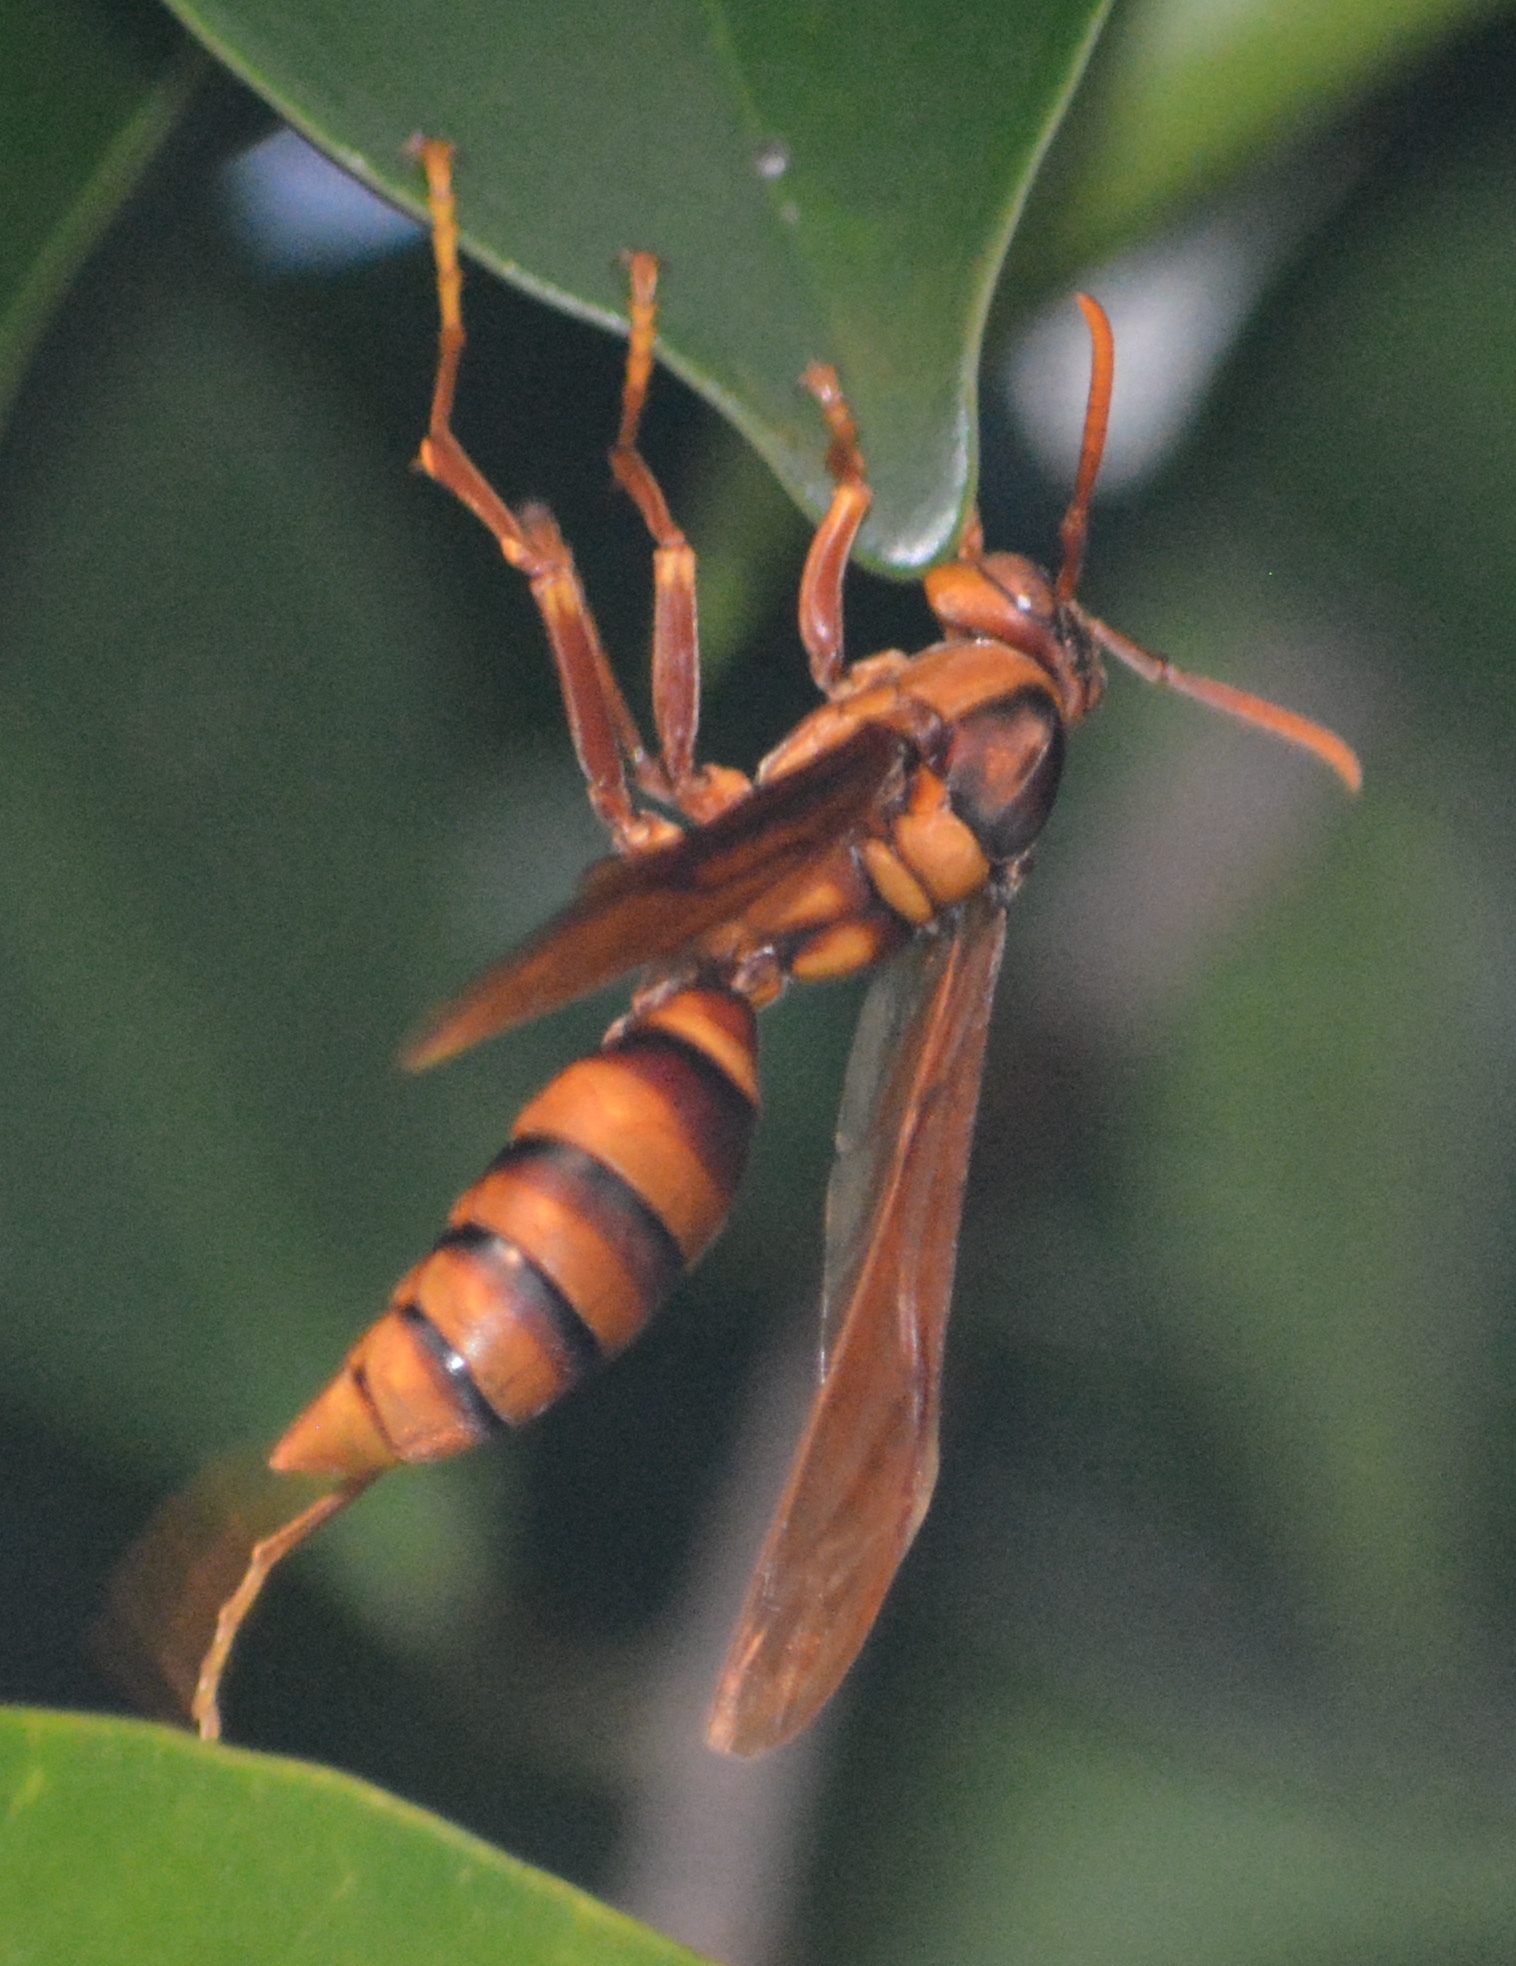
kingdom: Animalia
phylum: Arthropoda
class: Insecta
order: Hymenoptera
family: Eumenidae
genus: Polistes
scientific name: Polistes carnifex
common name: Paper wasp
